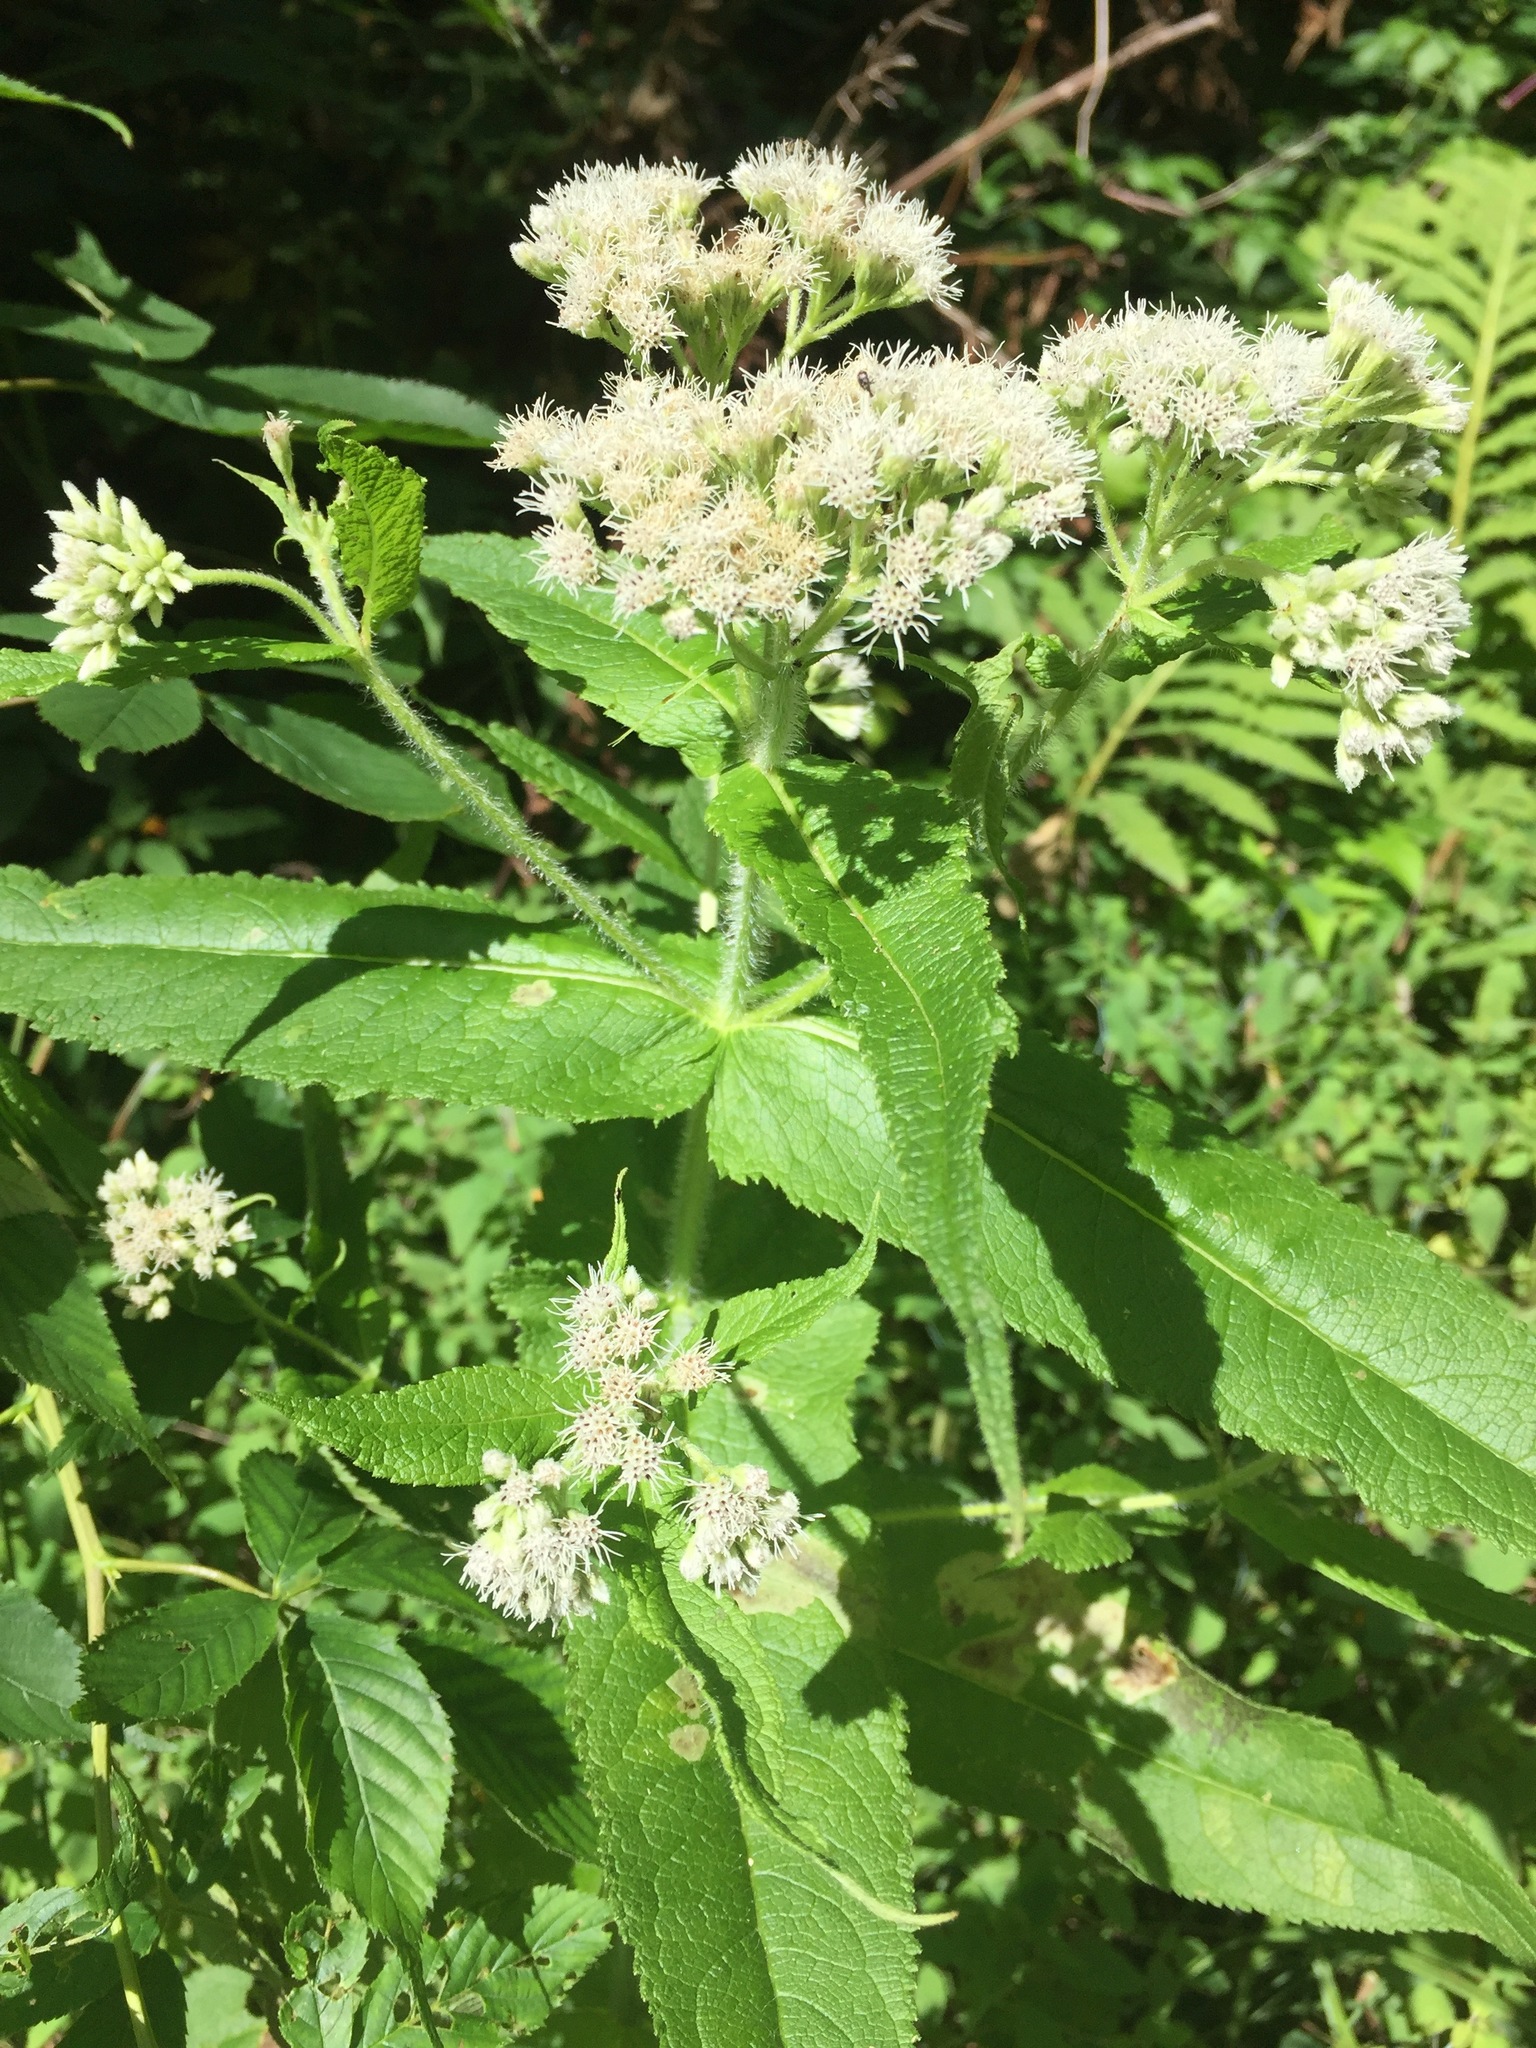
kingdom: Plantae
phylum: Tracheophyta
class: Magnoliopsida
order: Asterales
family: Asteraceae
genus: Eupatorium
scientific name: Eupatorium perfoliatum
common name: Boneset
